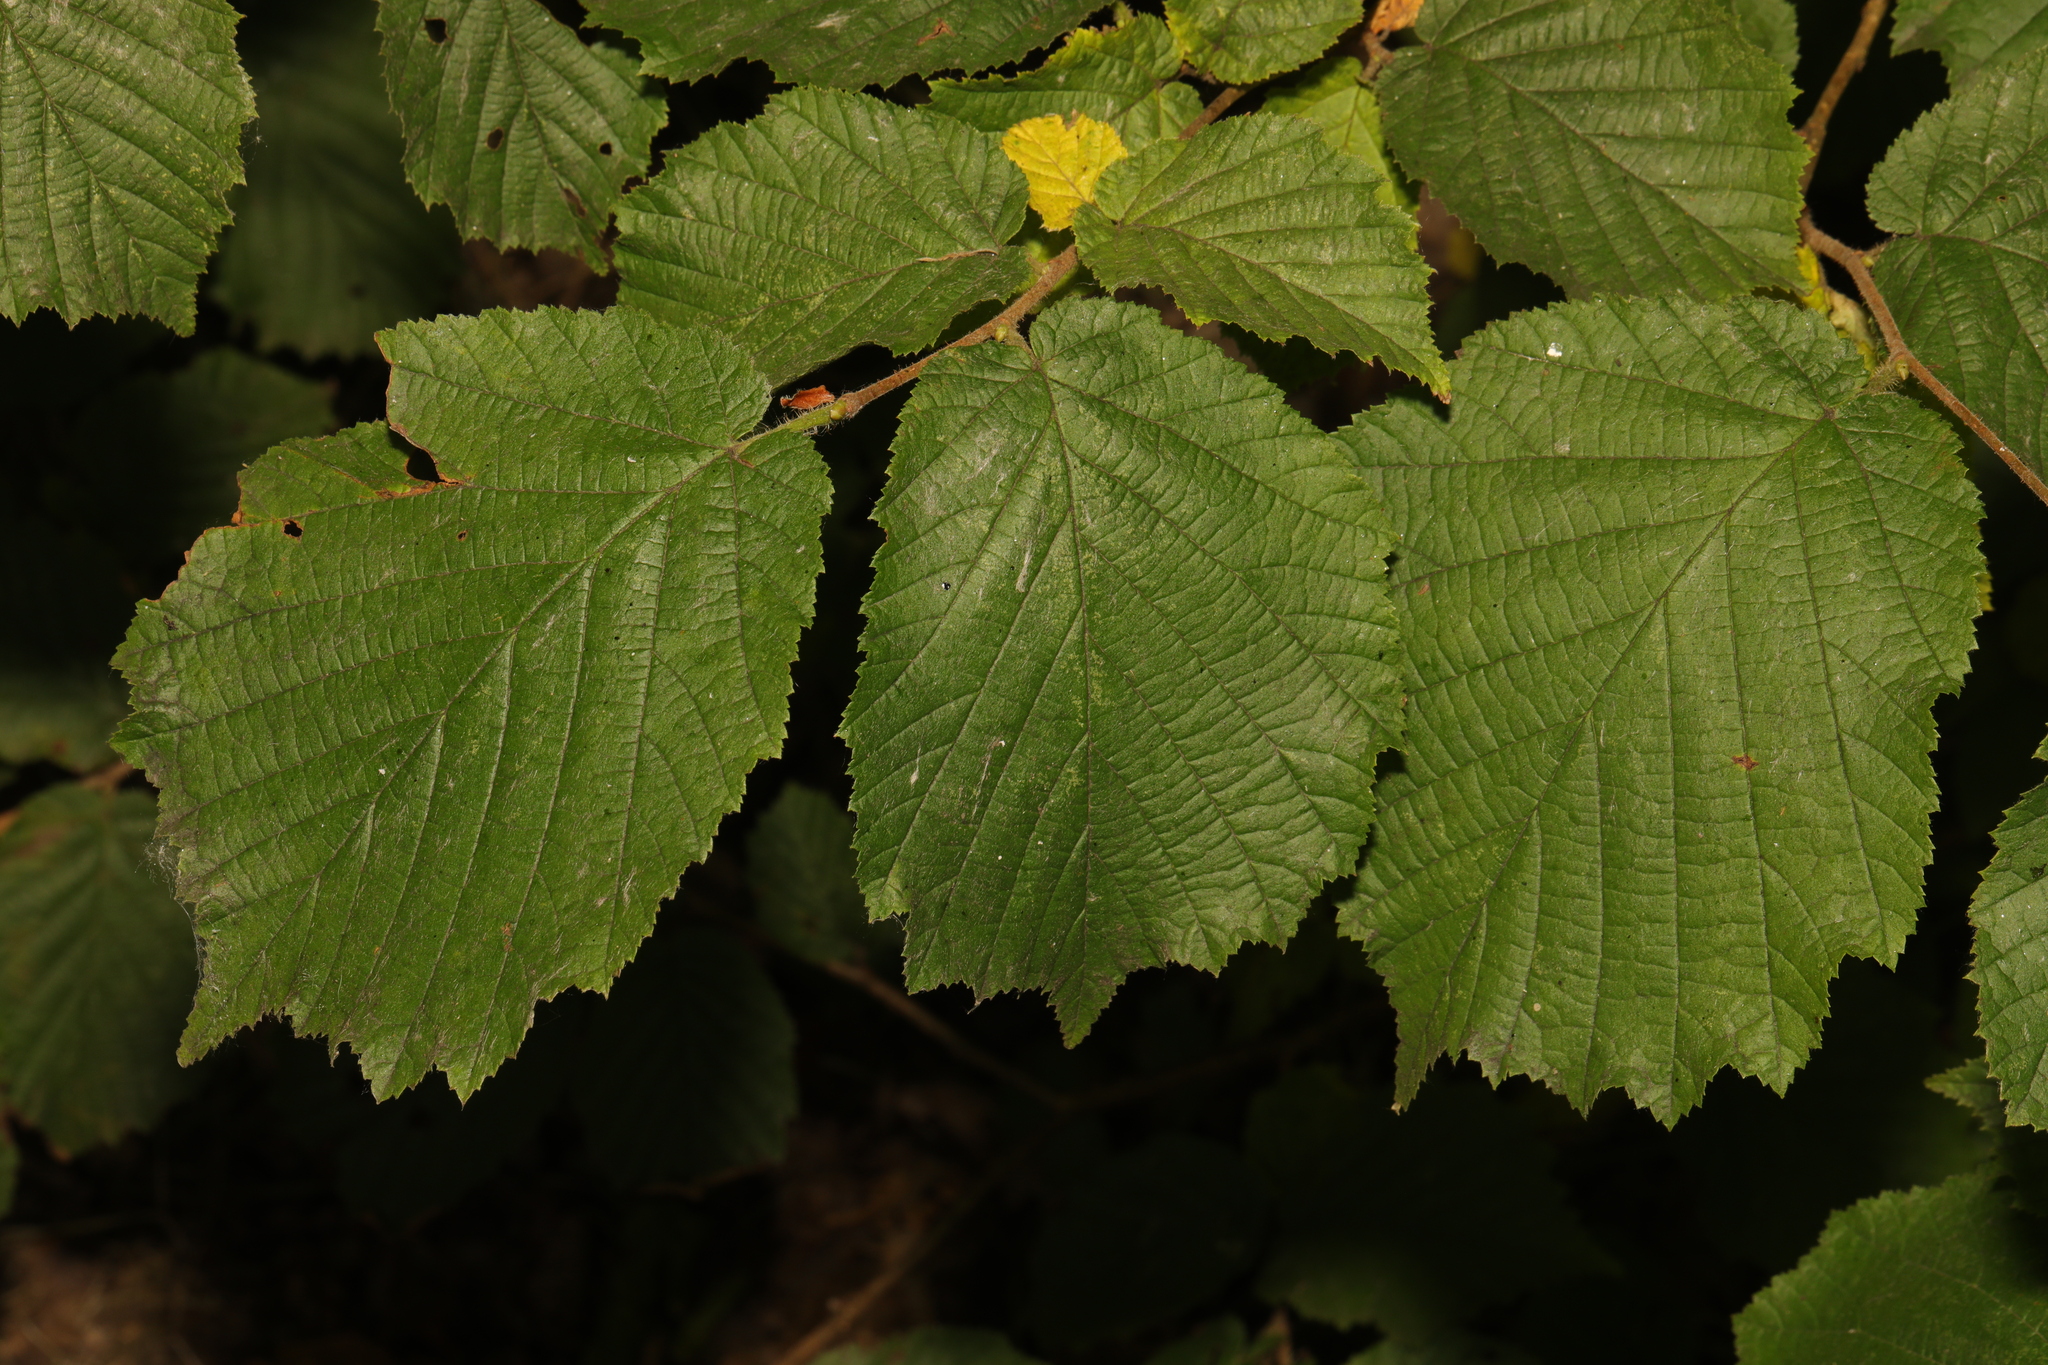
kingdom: Plantae
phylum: Tracheophyta
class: Magnoliopsida
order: Fagales
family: Betulaceae
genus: Corylus
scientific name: Corylus avellana
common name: European hazel
